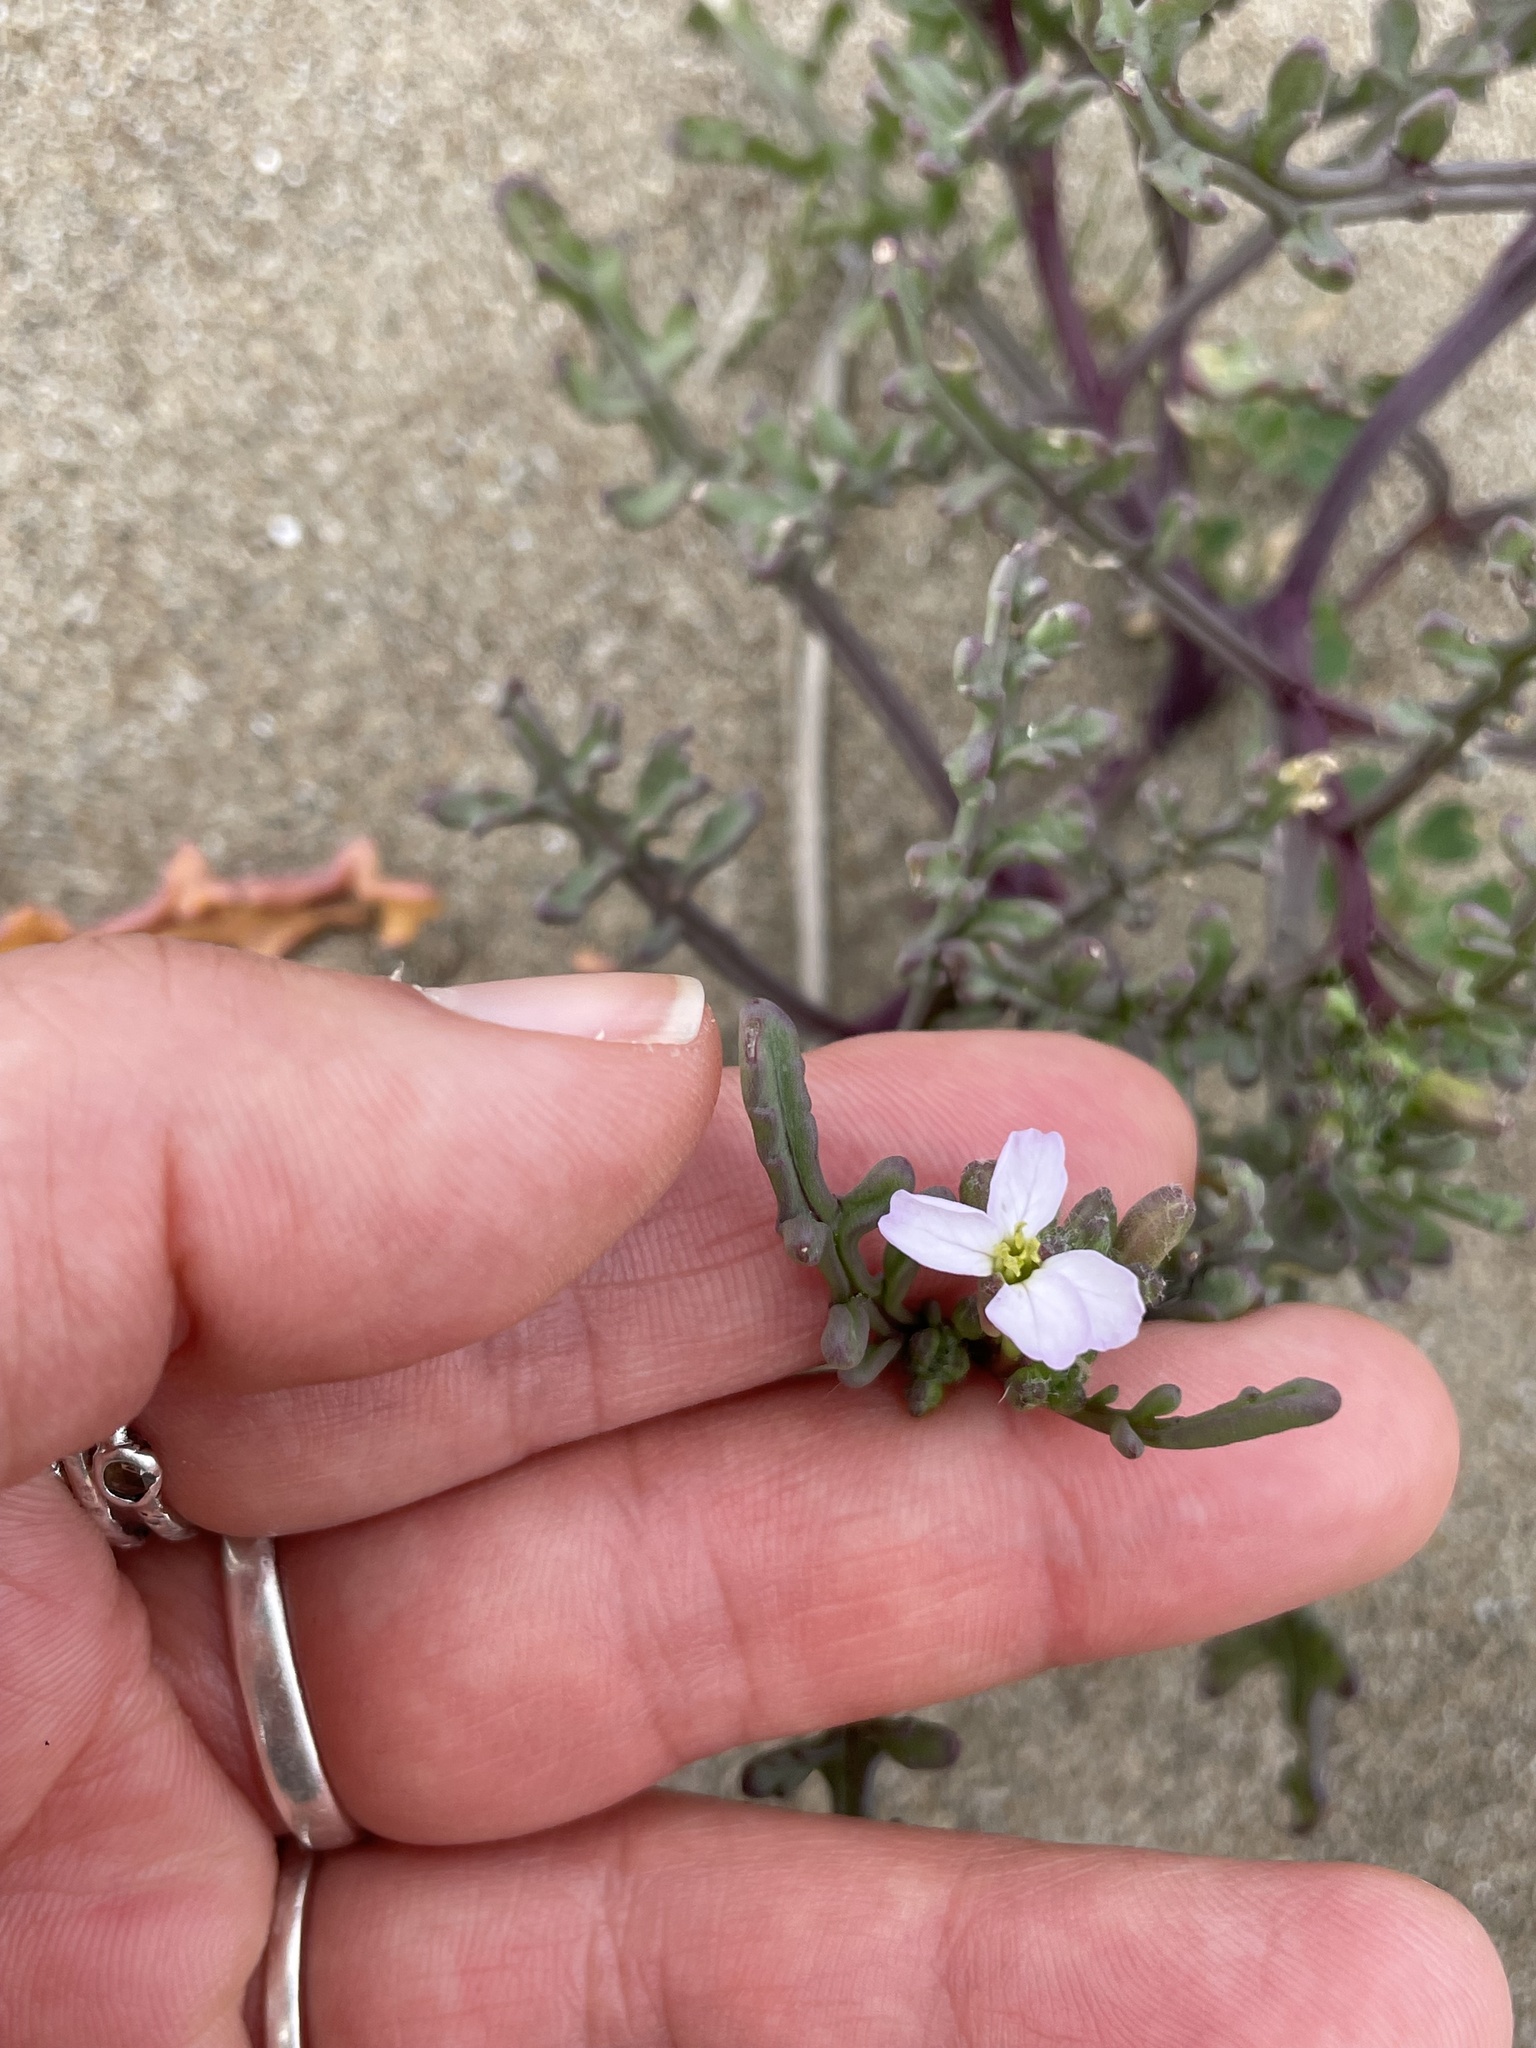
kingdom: Plantae
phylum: Tracheophyta
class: Magnoliopsida
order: Brassicales
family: Brassicaceae
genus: Cakile
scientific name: Cakile maritima
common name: Sea rocket
